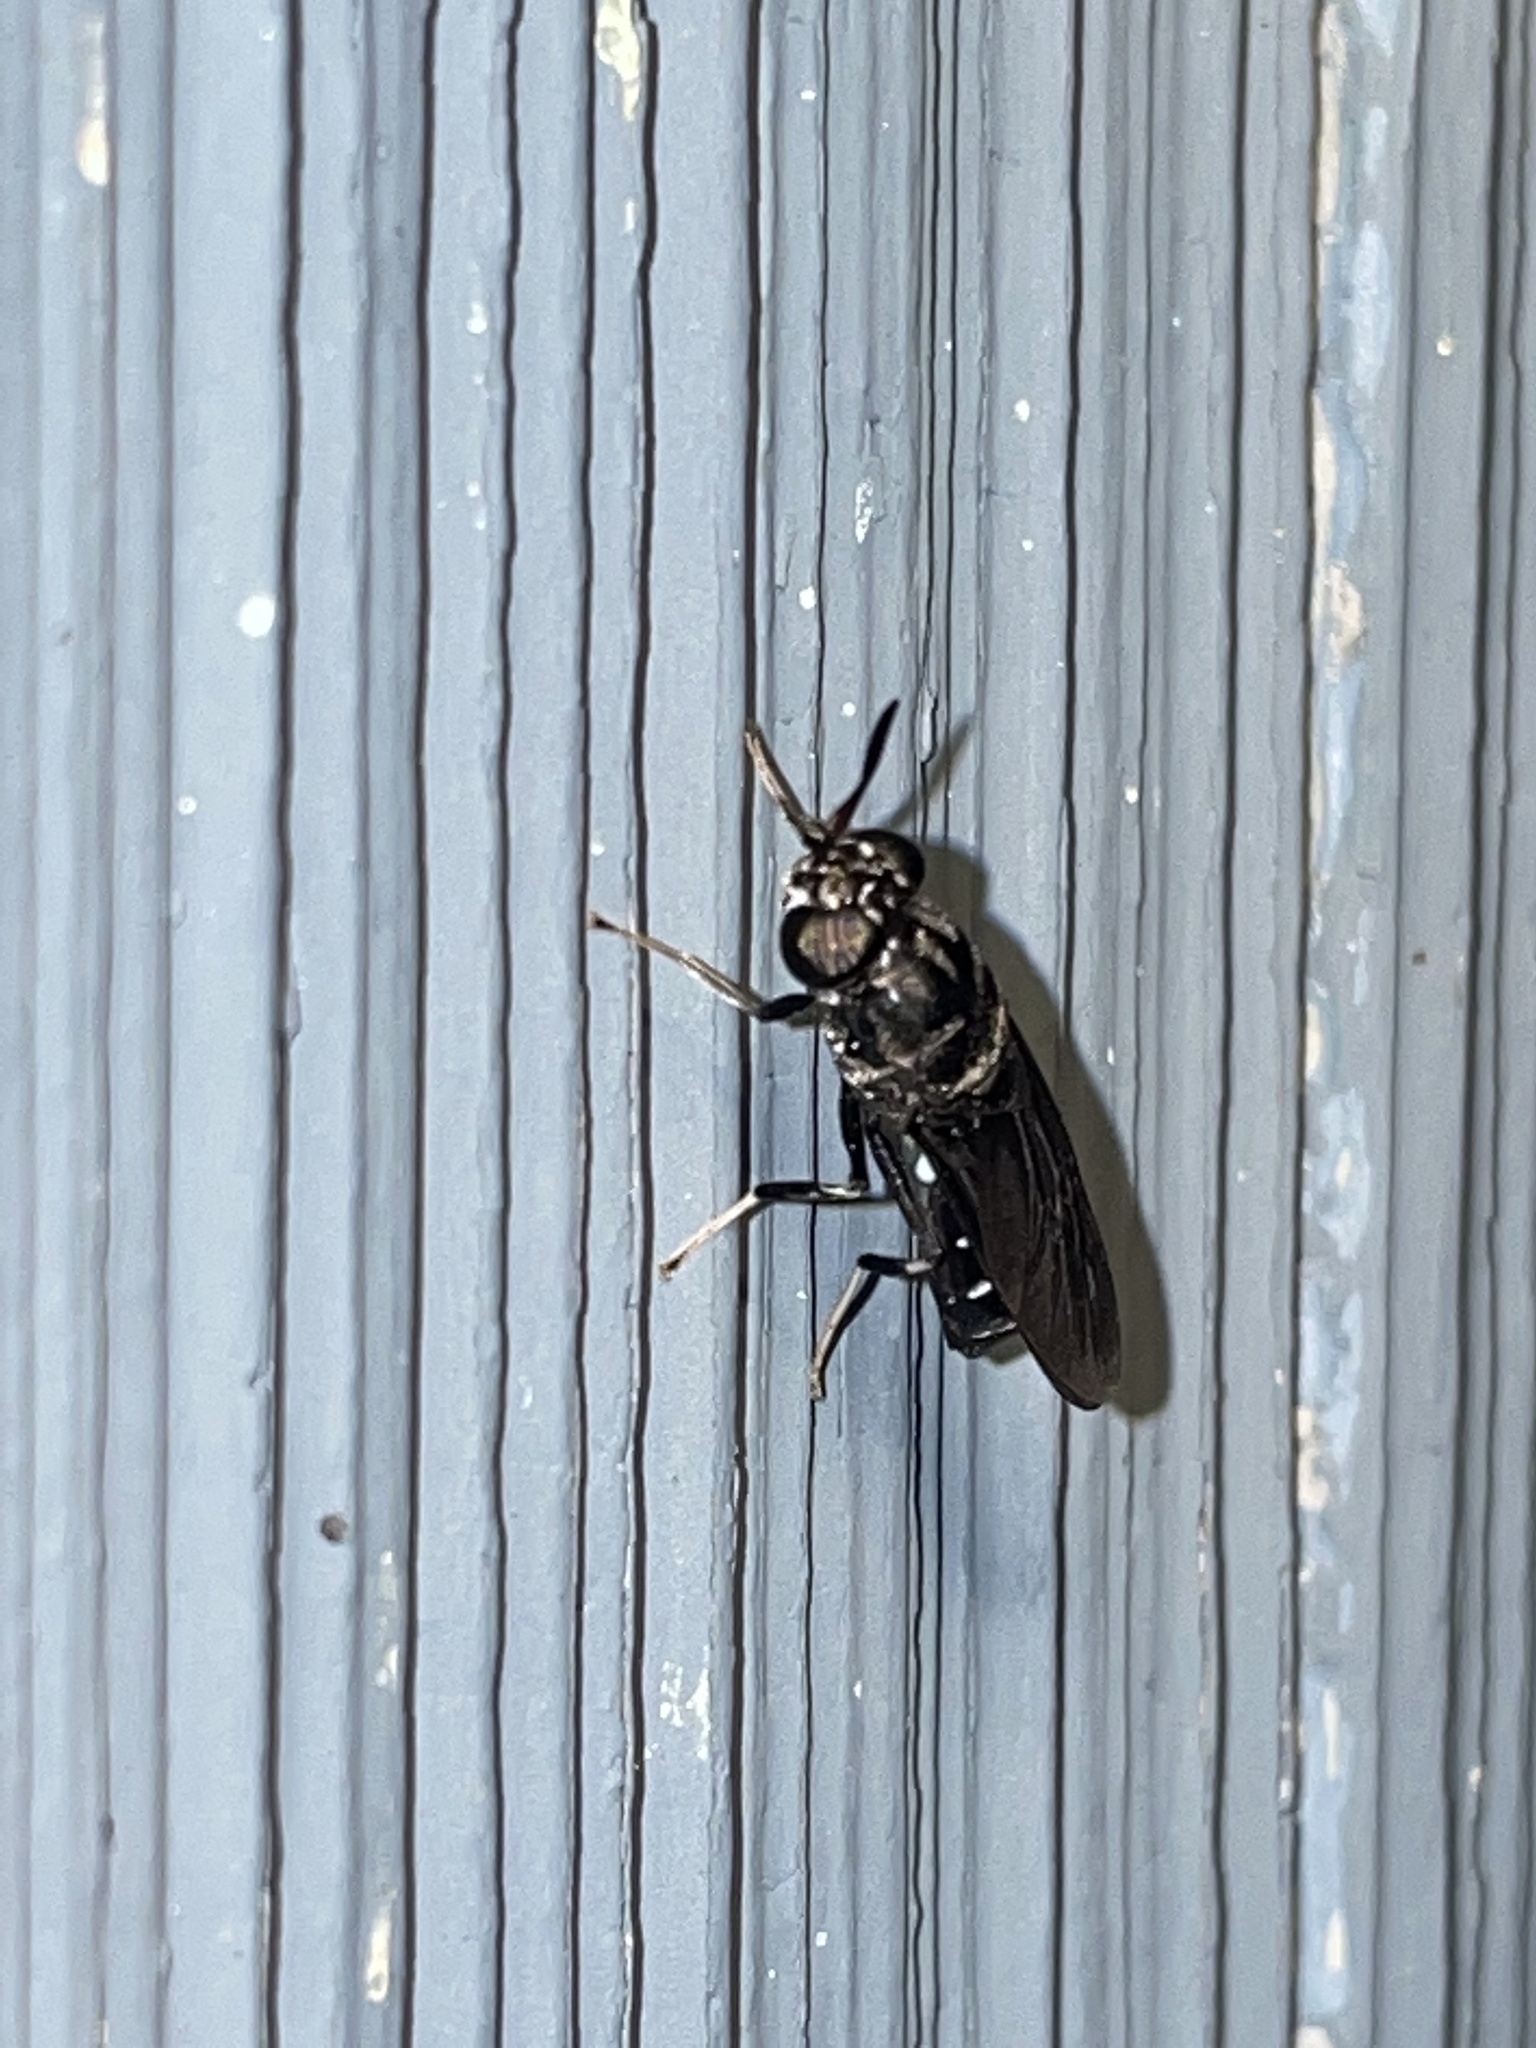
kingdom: Animalia
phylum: Arthropoda
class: Insecta
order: Diptera
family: Stratiomyidae
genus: Hermetia
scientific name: Hermetia illucens
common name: Black soldier fly
